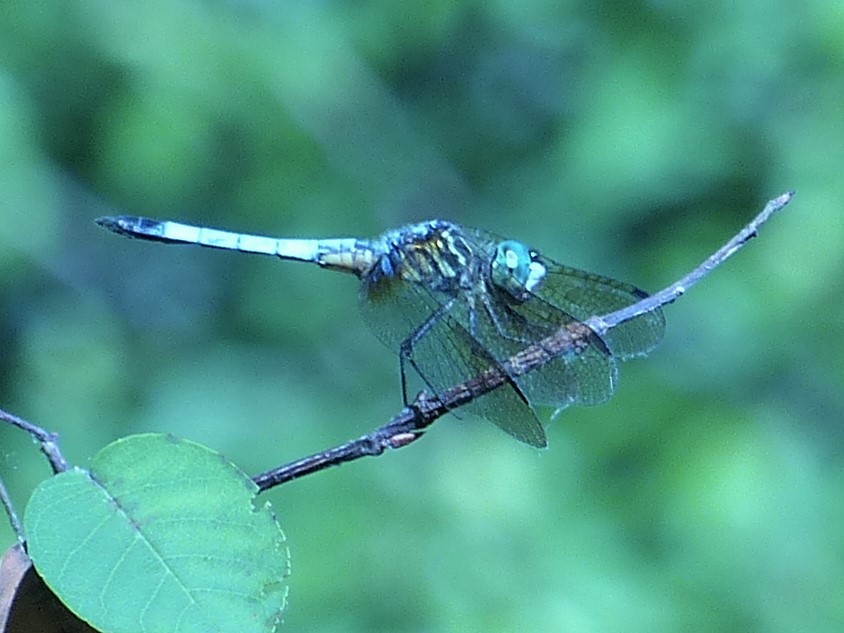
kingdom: Animalia
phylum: Arthropoda
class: Insecta
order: Odonata
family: Libellulidae
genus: Pachydiplax
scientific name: Pachydiplax longipennis
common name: Blue dasher
